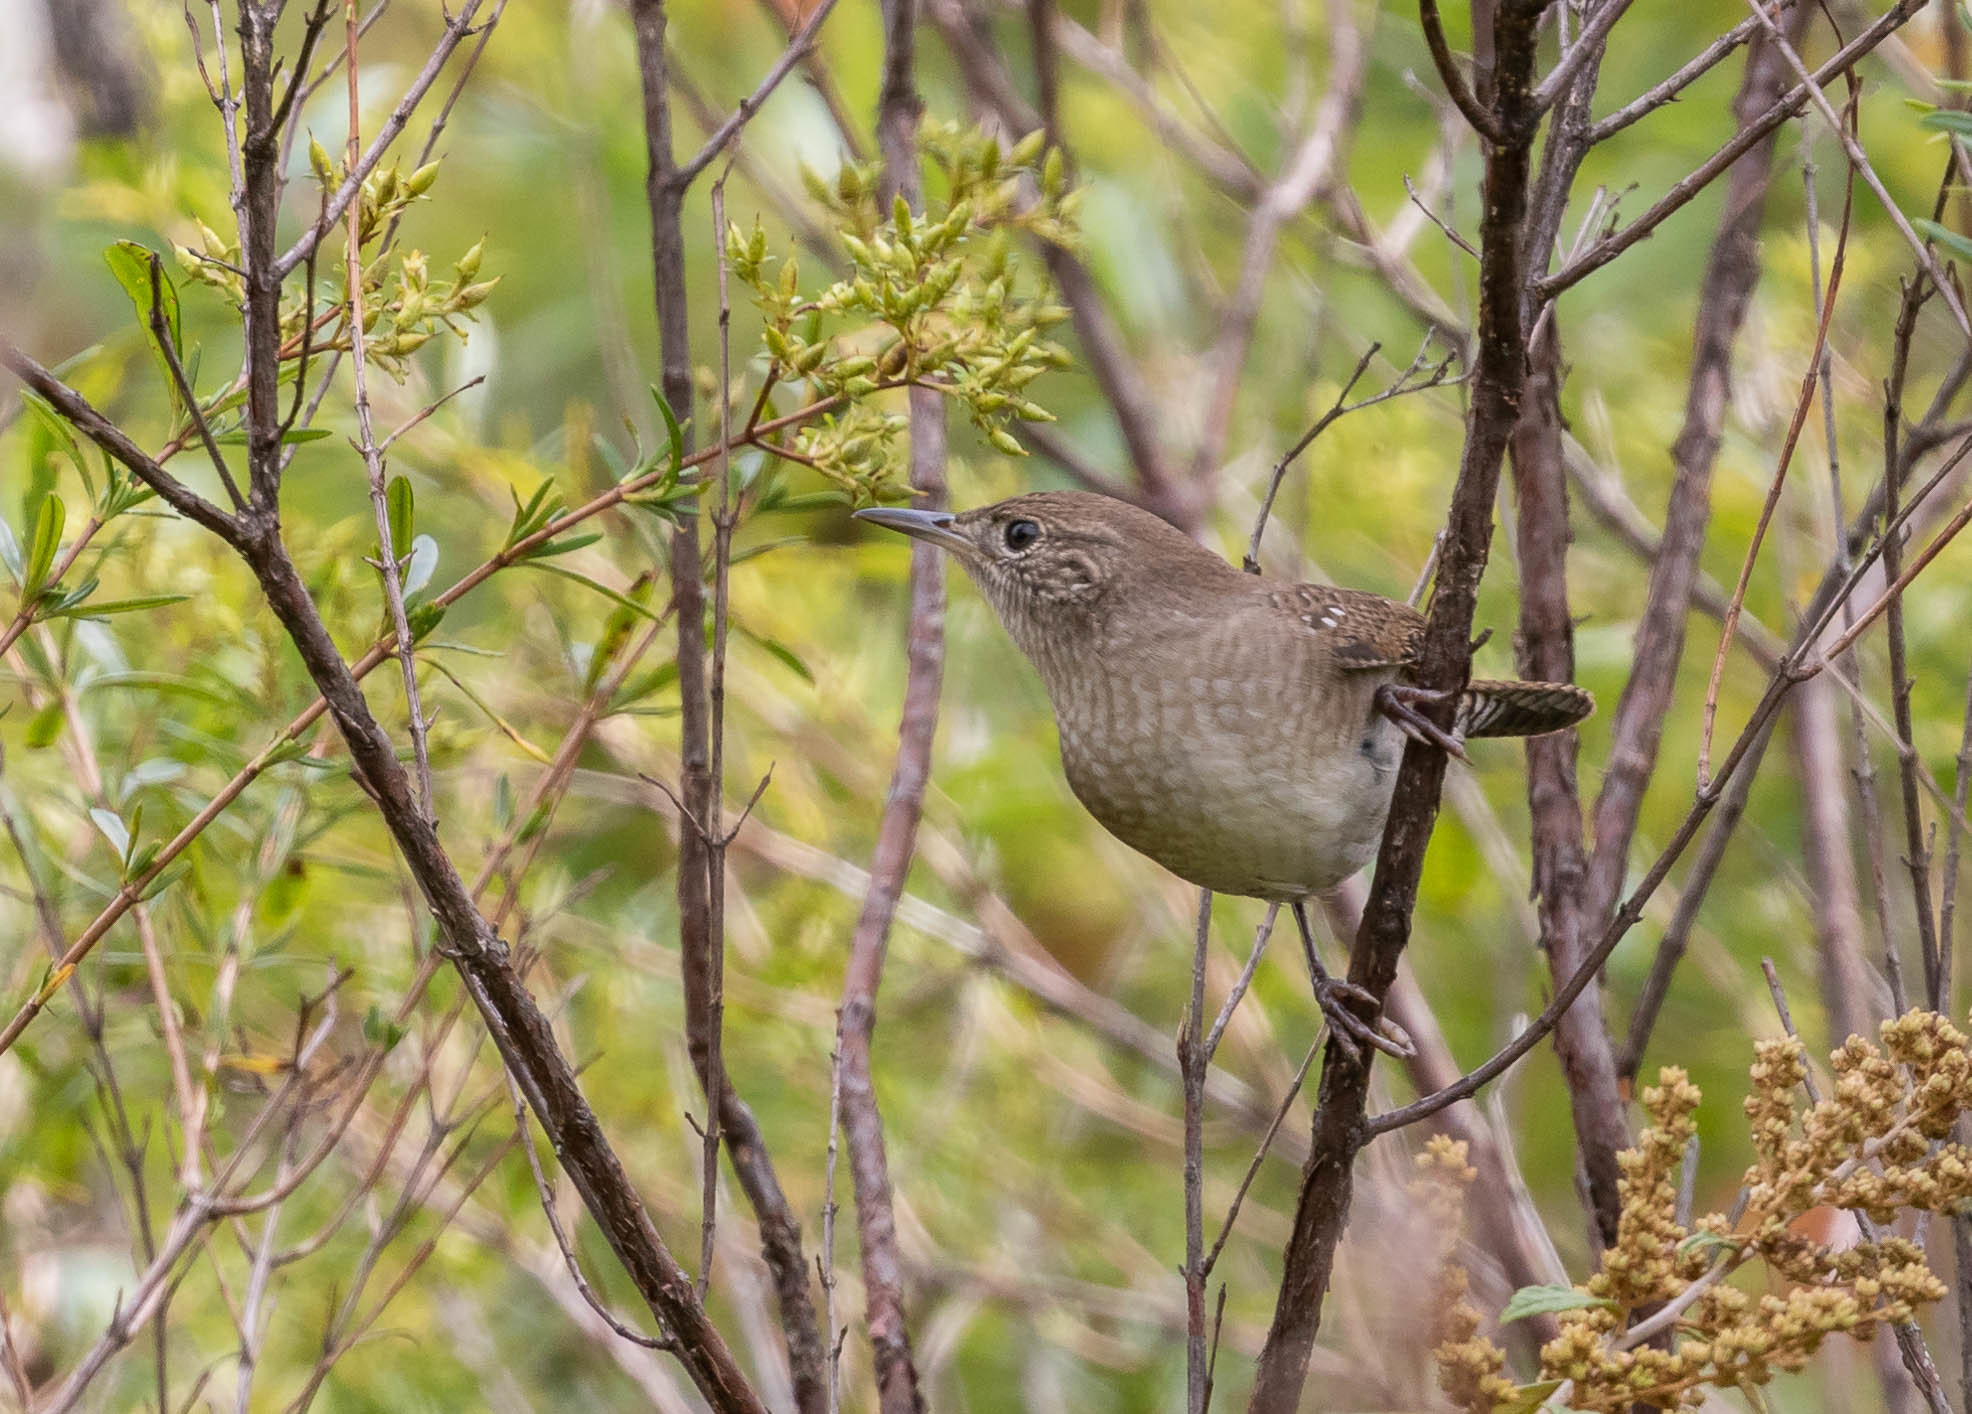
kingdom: Animalia
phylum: Chordata
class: Aves
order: Passeriformes
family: Troglodytidae
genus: Troglodytes
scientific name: Troglodytes aedon
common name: House wren
